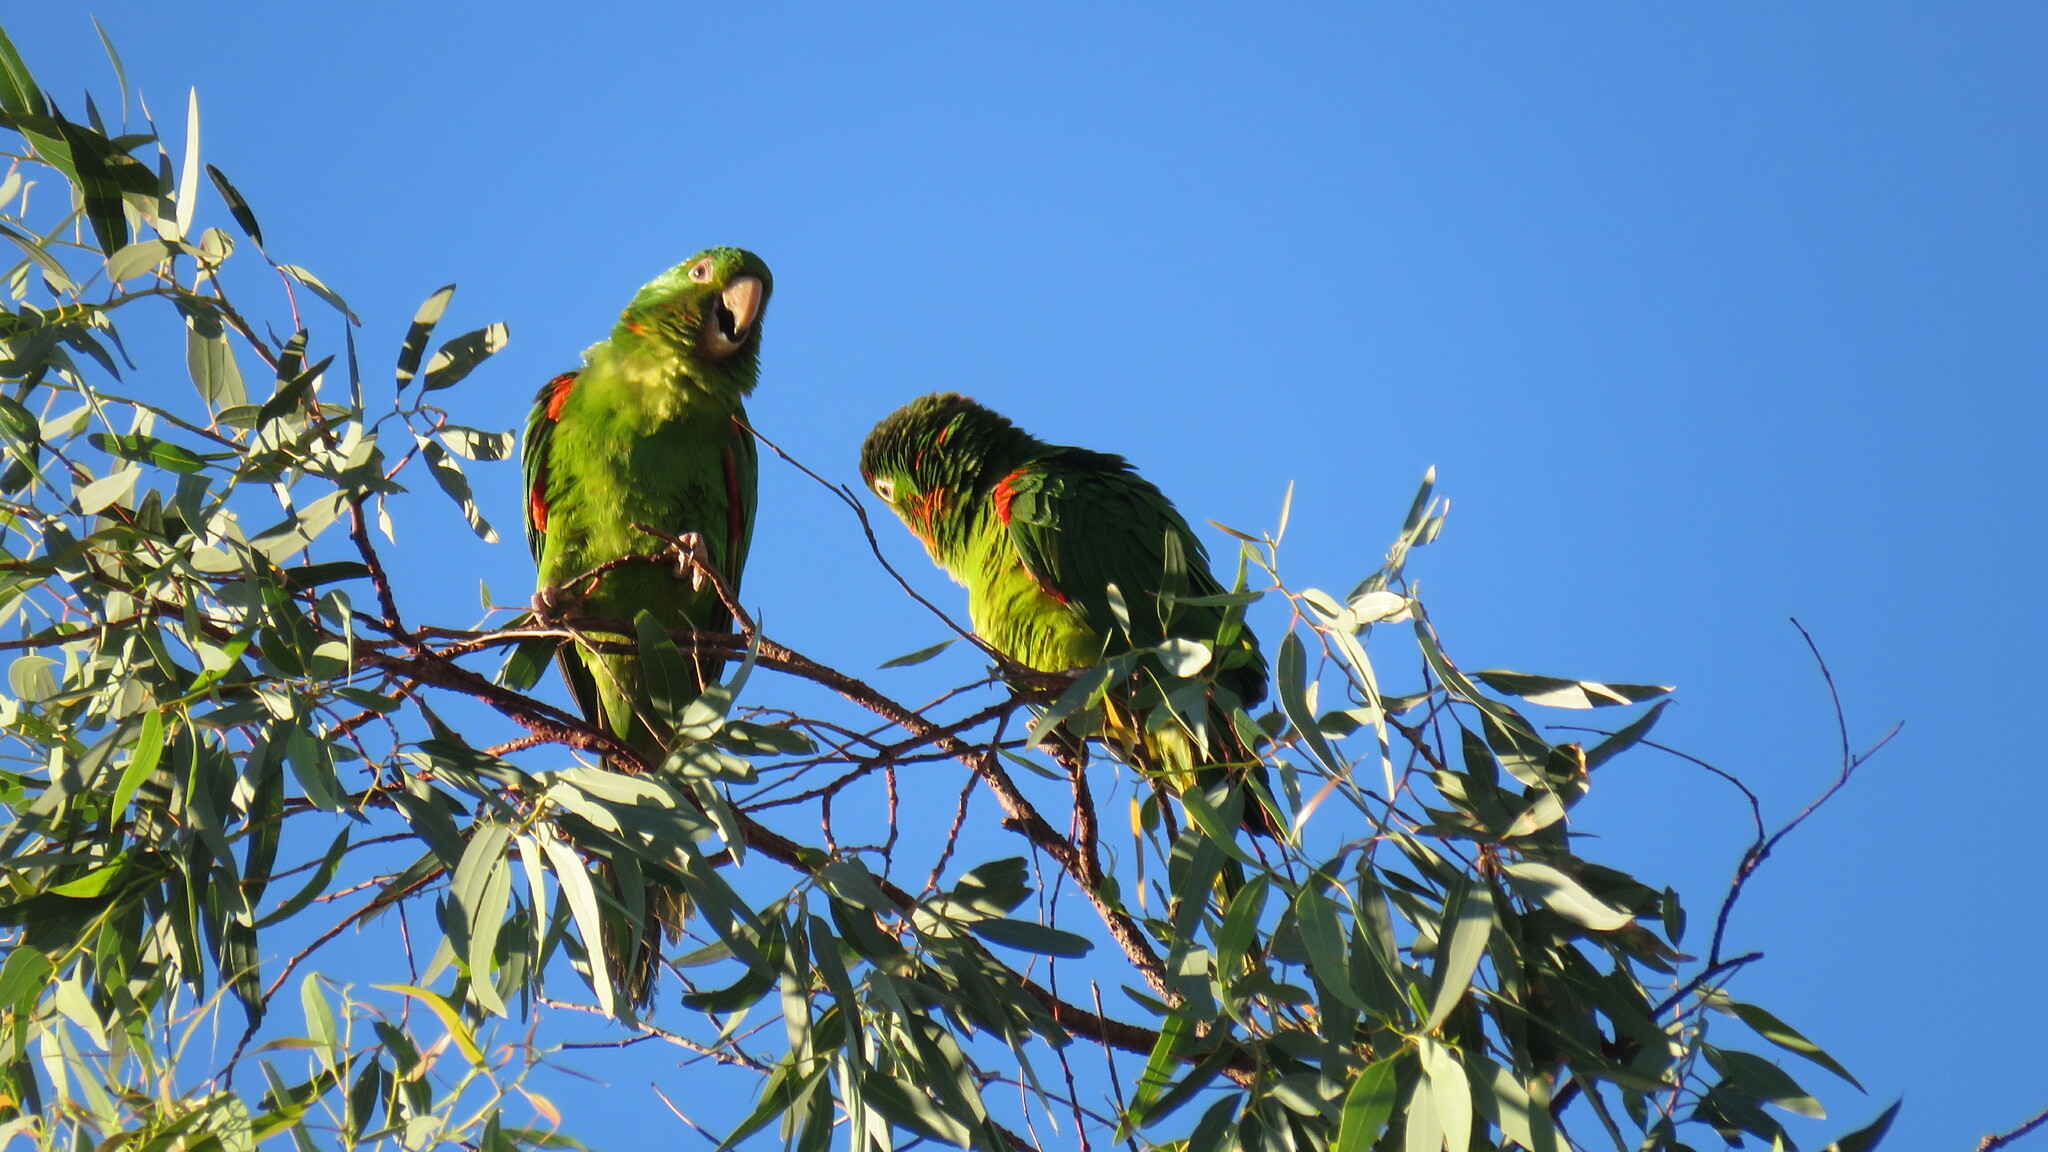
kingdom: Animalia
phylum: Chordata
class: Aves
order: Psittaciformes
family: Psittacidae
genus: Aratinga
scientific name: Aratinga leucophthalma
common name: White-eyed parakeet
